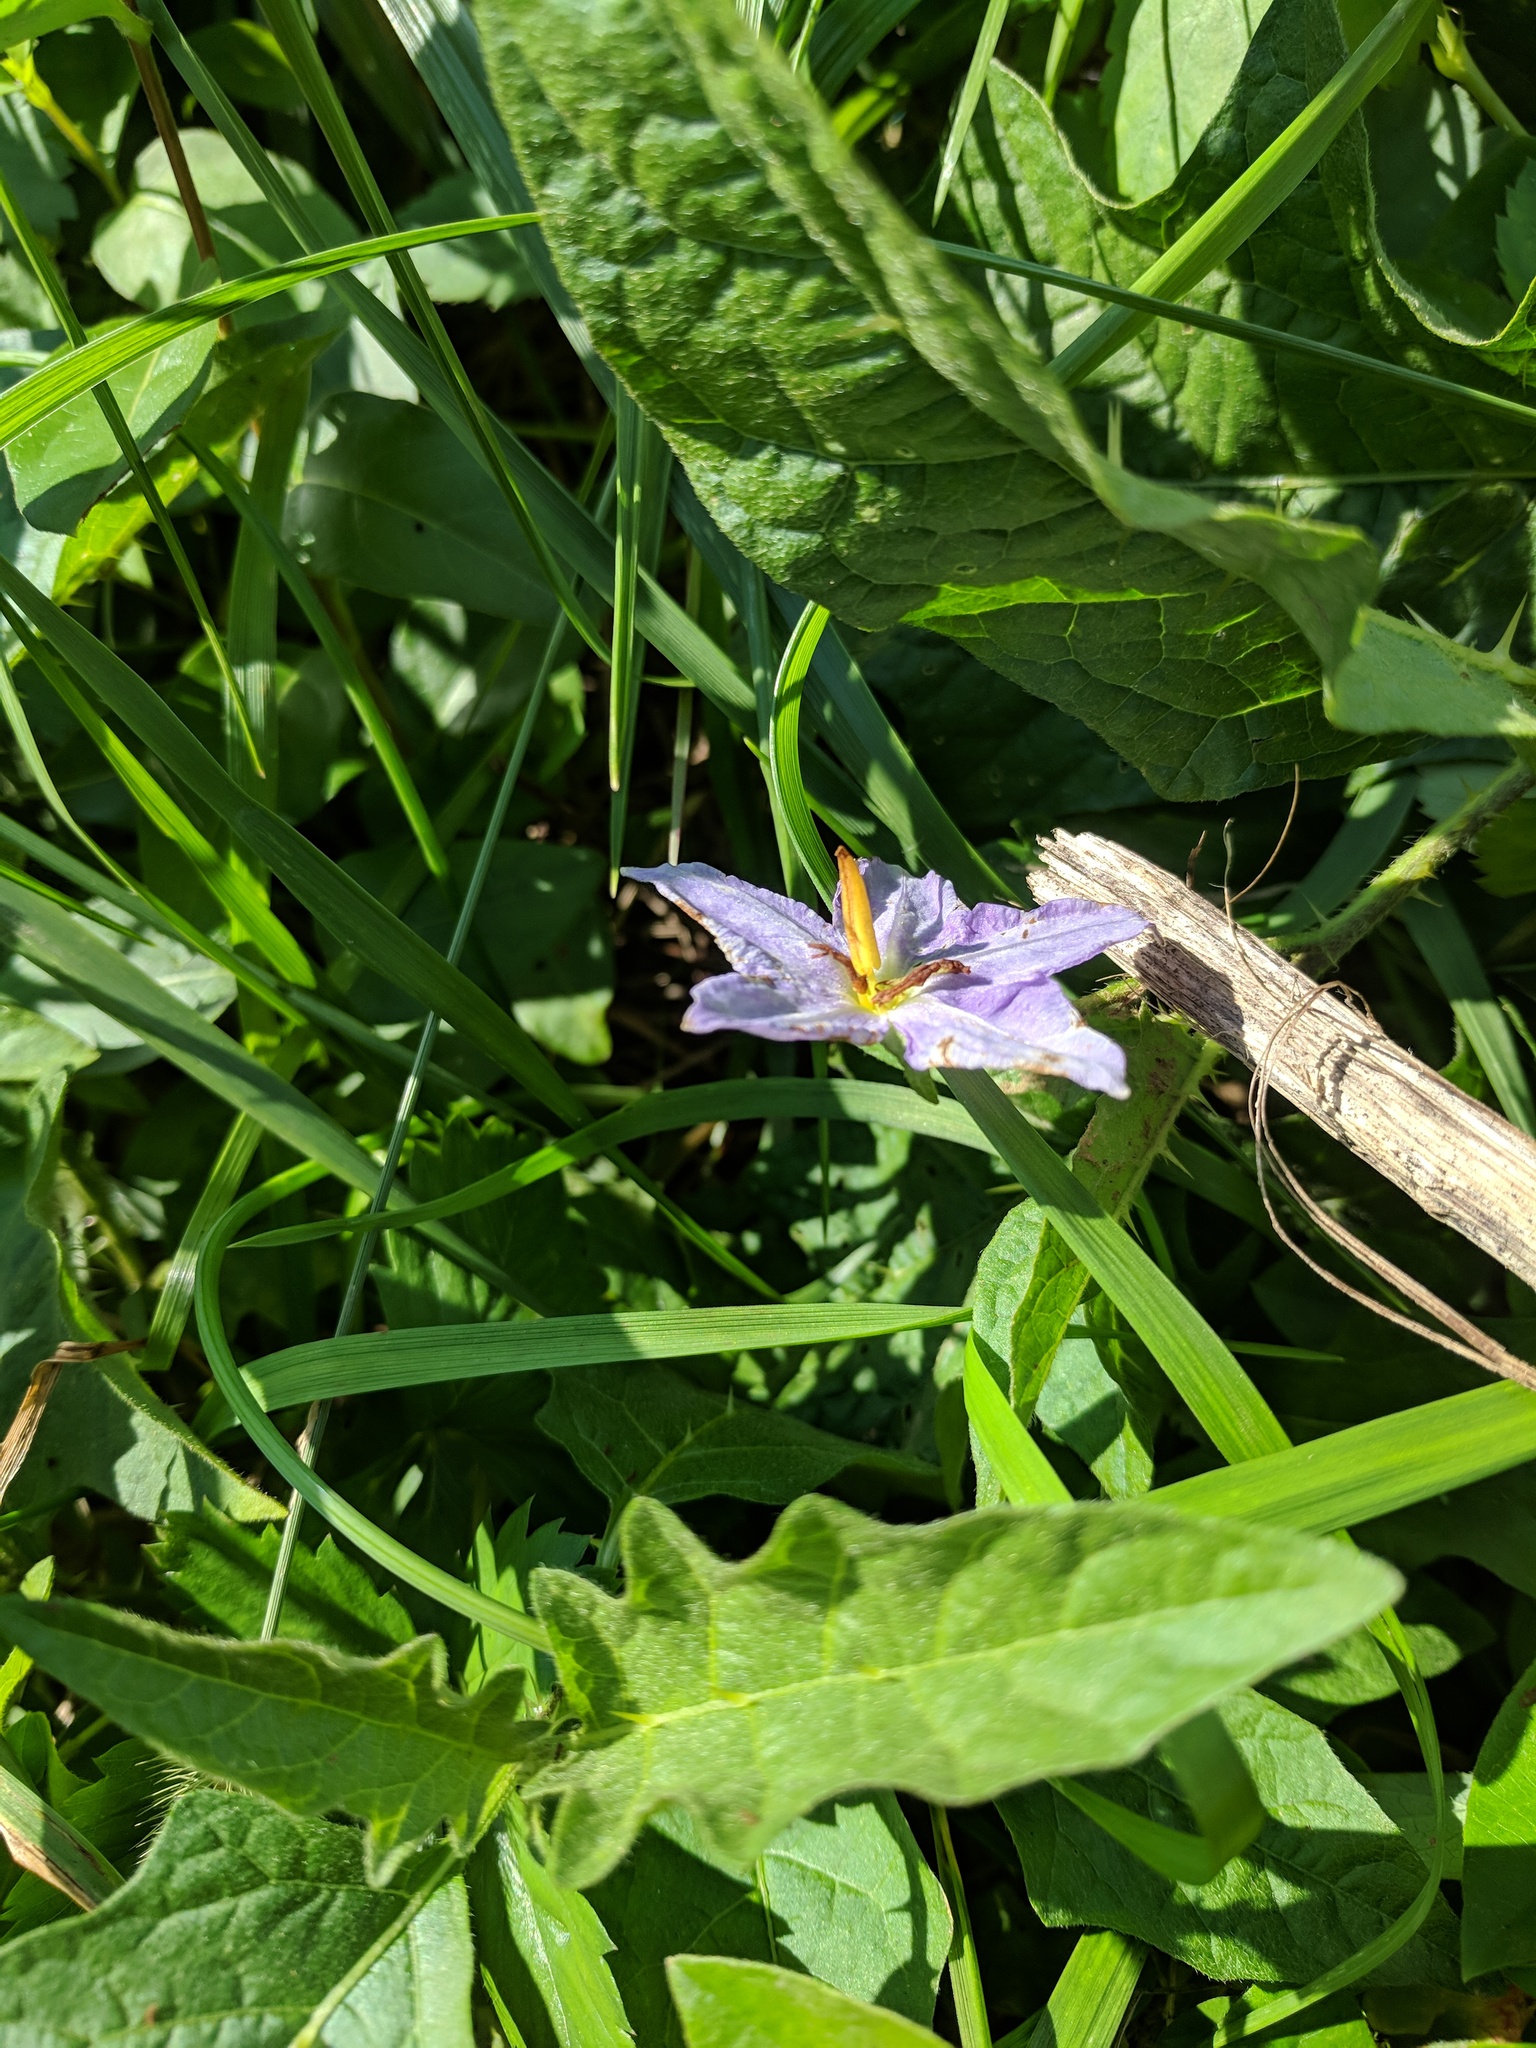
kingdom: Plantae
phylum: Tracheophyta
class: Magnoliopsida
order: Solanales
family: Solanaceae
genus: Solanum
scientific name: Solanum carolinense
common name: Horse-nettle
